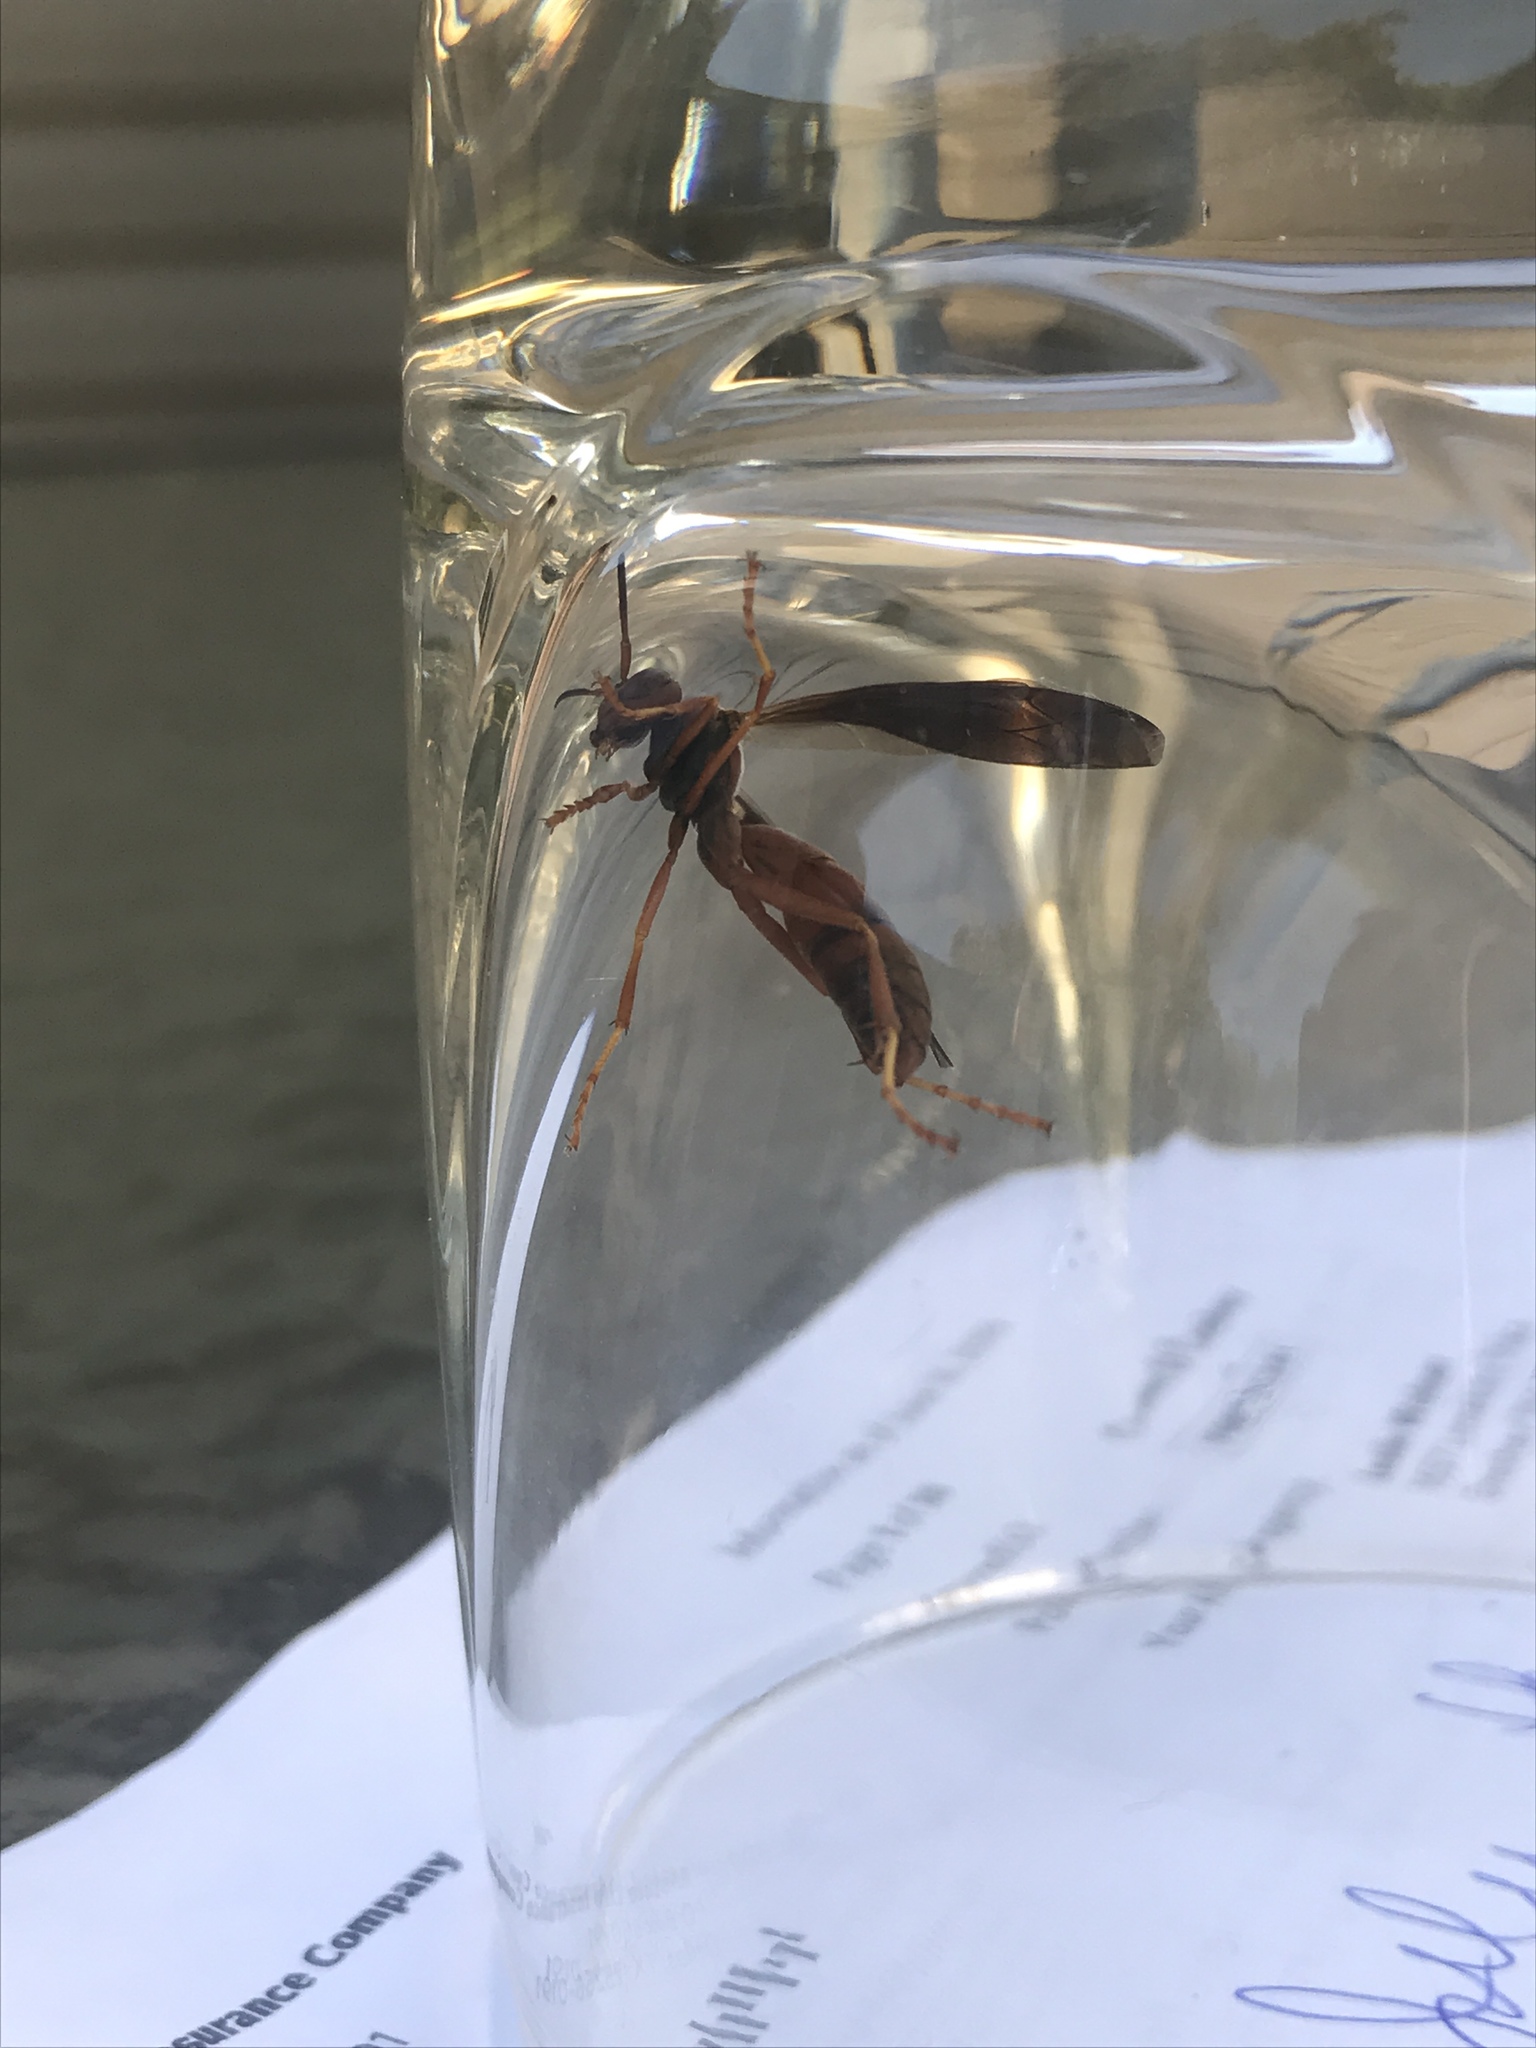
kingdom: Animalia
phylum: Arthropoda
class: Insecta
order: Hymenoptera
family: Vespidae
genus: Fuscopolistes
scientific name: Fuscopolistes
